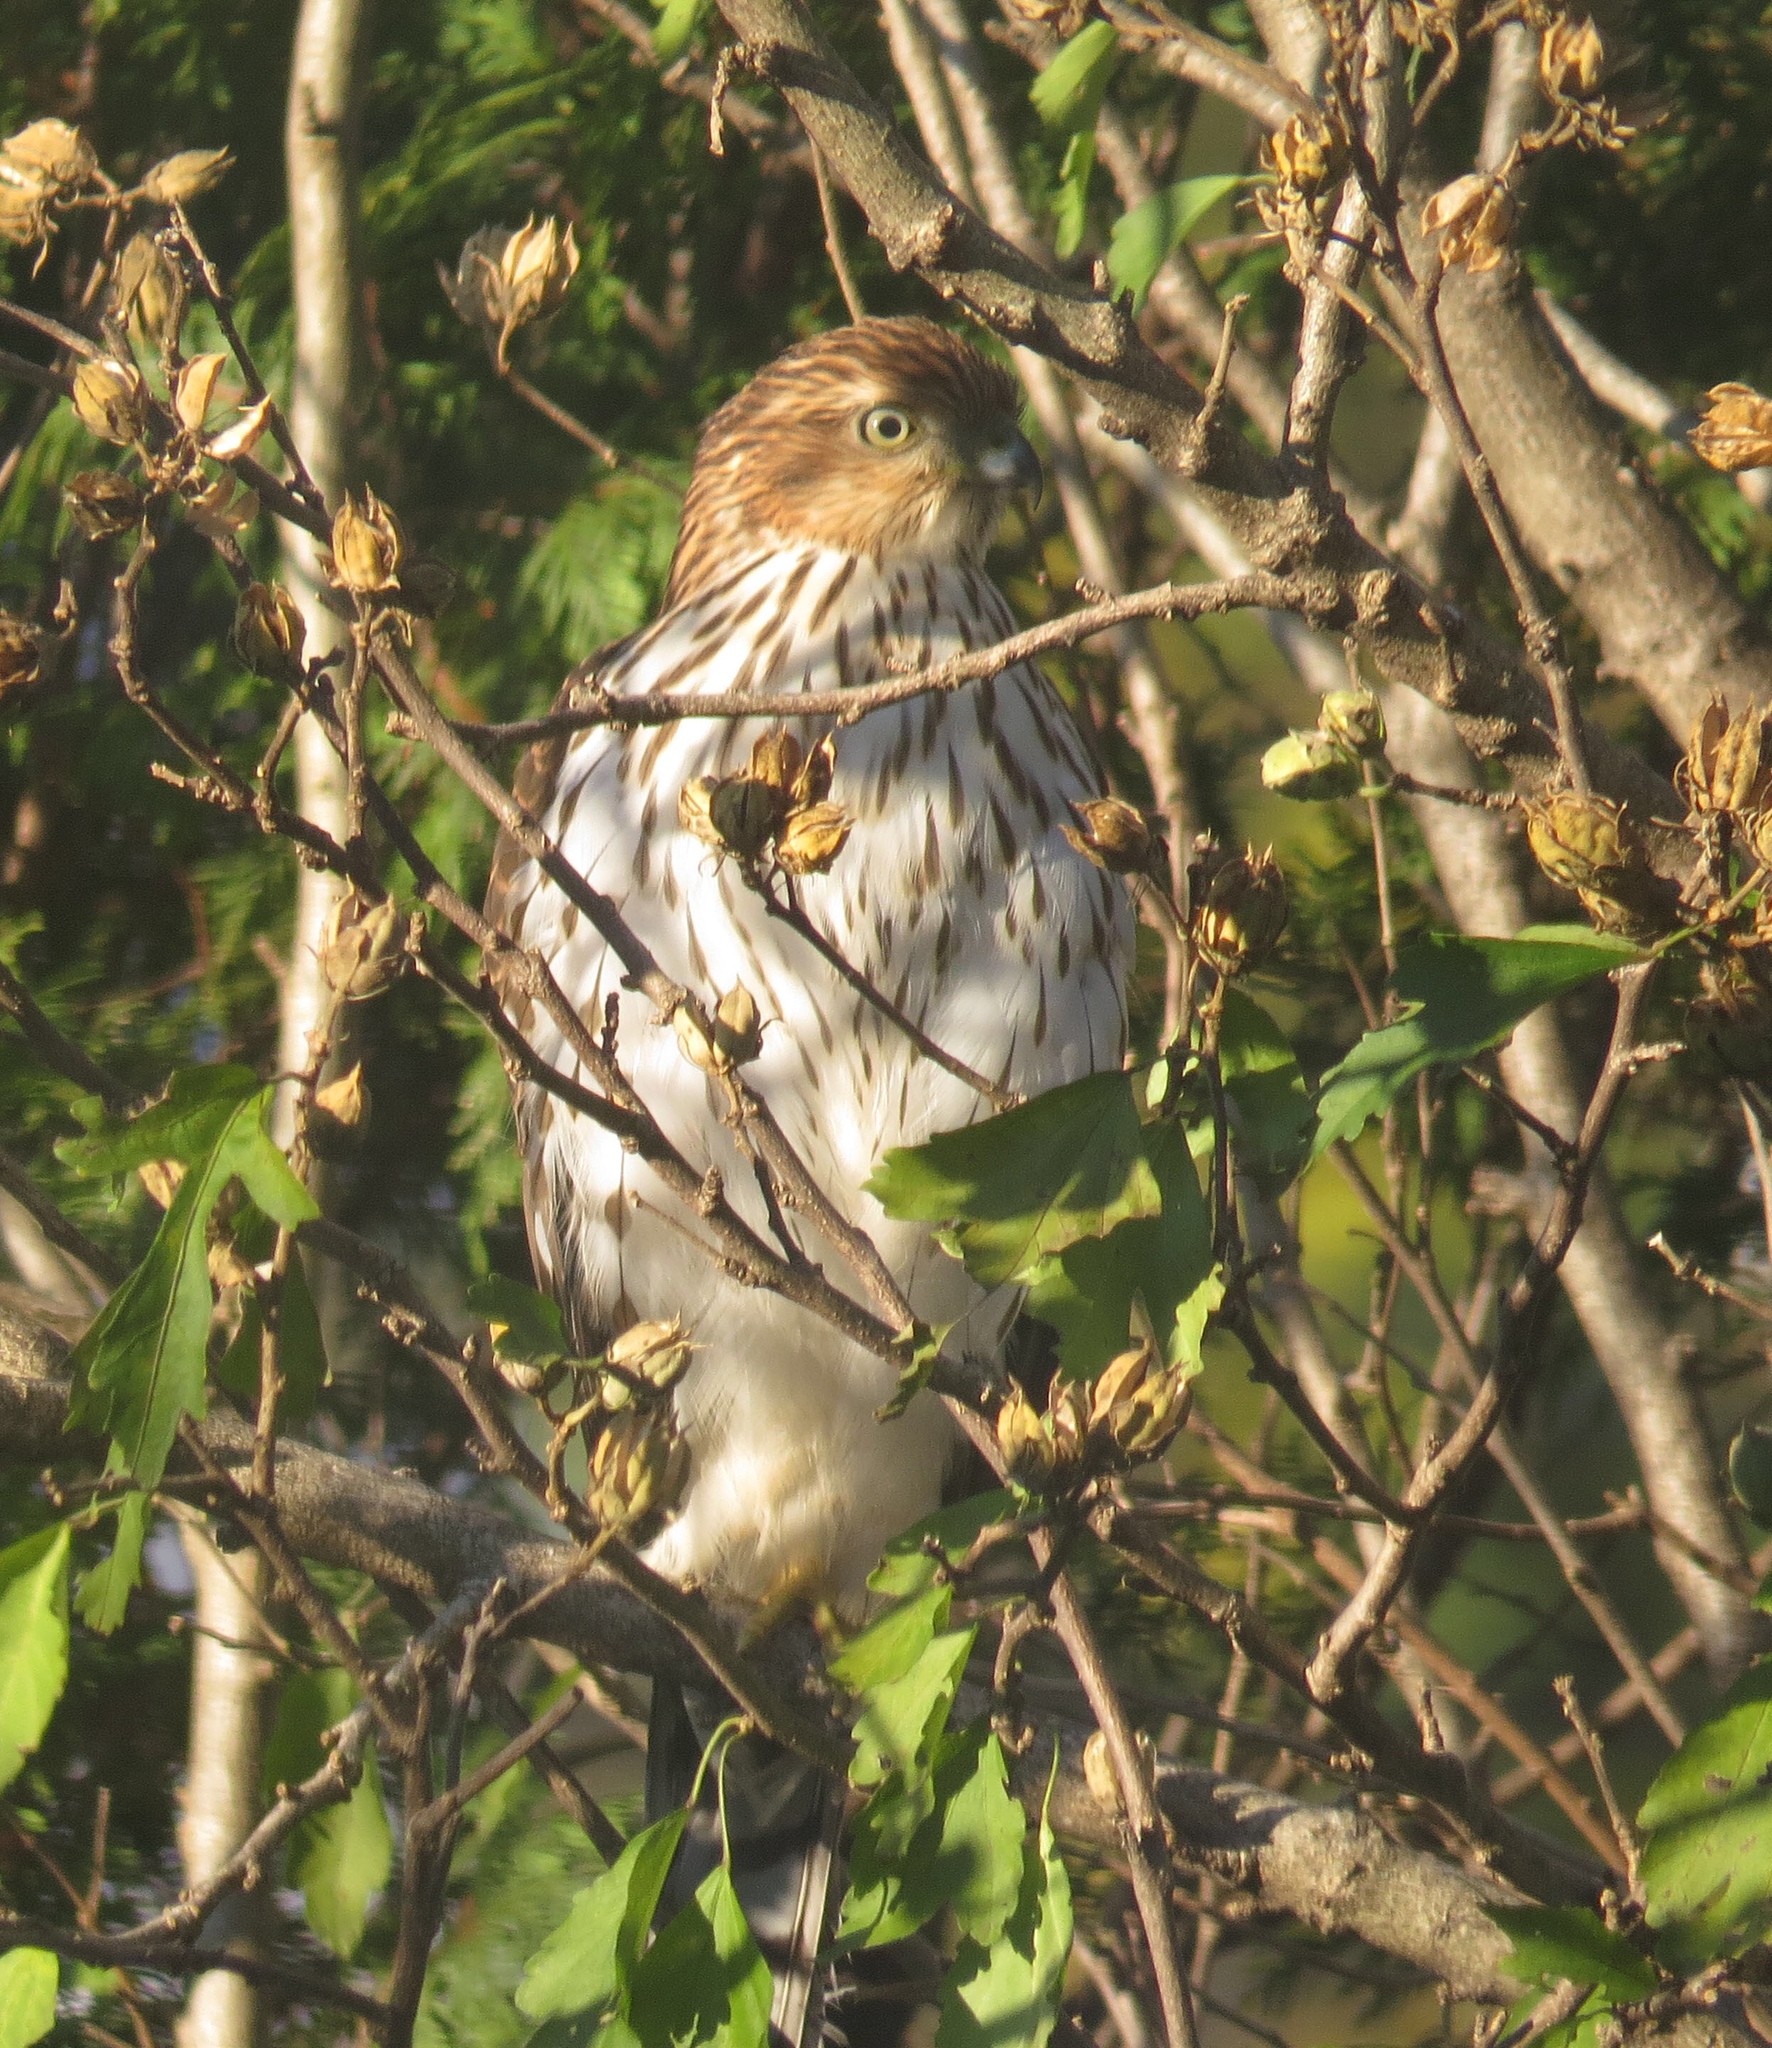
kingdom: Animalia
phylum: Chordata
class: Aves
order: Accipitriformes
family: Accipitridae
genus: Accipiter
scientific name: Accipiter cooperii
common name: Cooper's hawk
